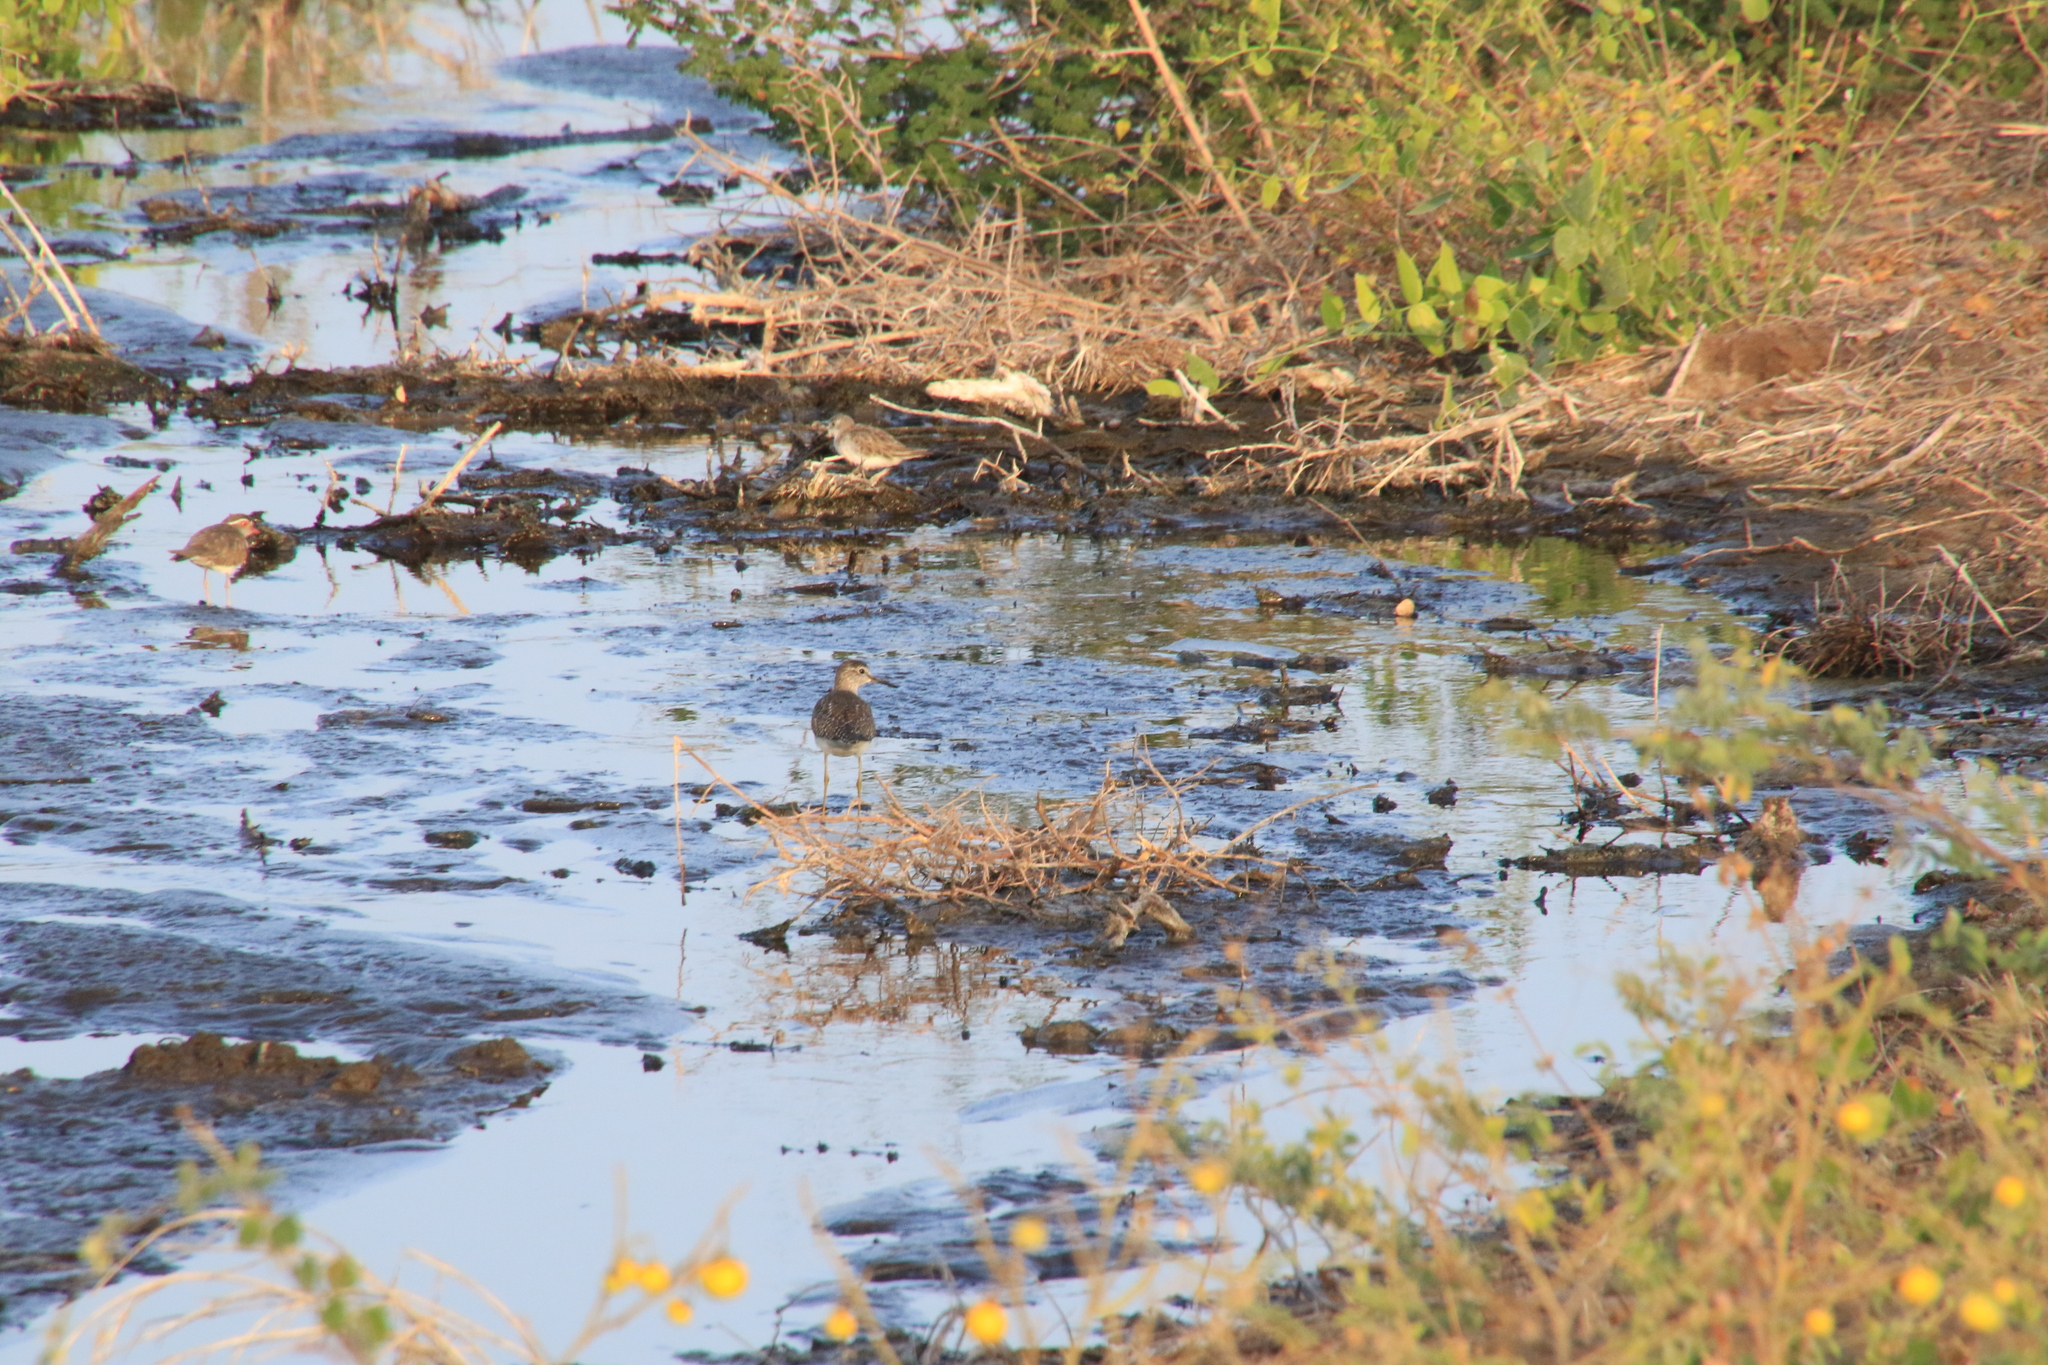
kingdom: Animalia
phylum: Chordata
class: Aves
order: Charadriiformes
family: Scolopacidae
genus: Tringa
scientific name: Tringa glareola
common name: Wood sandpiper
